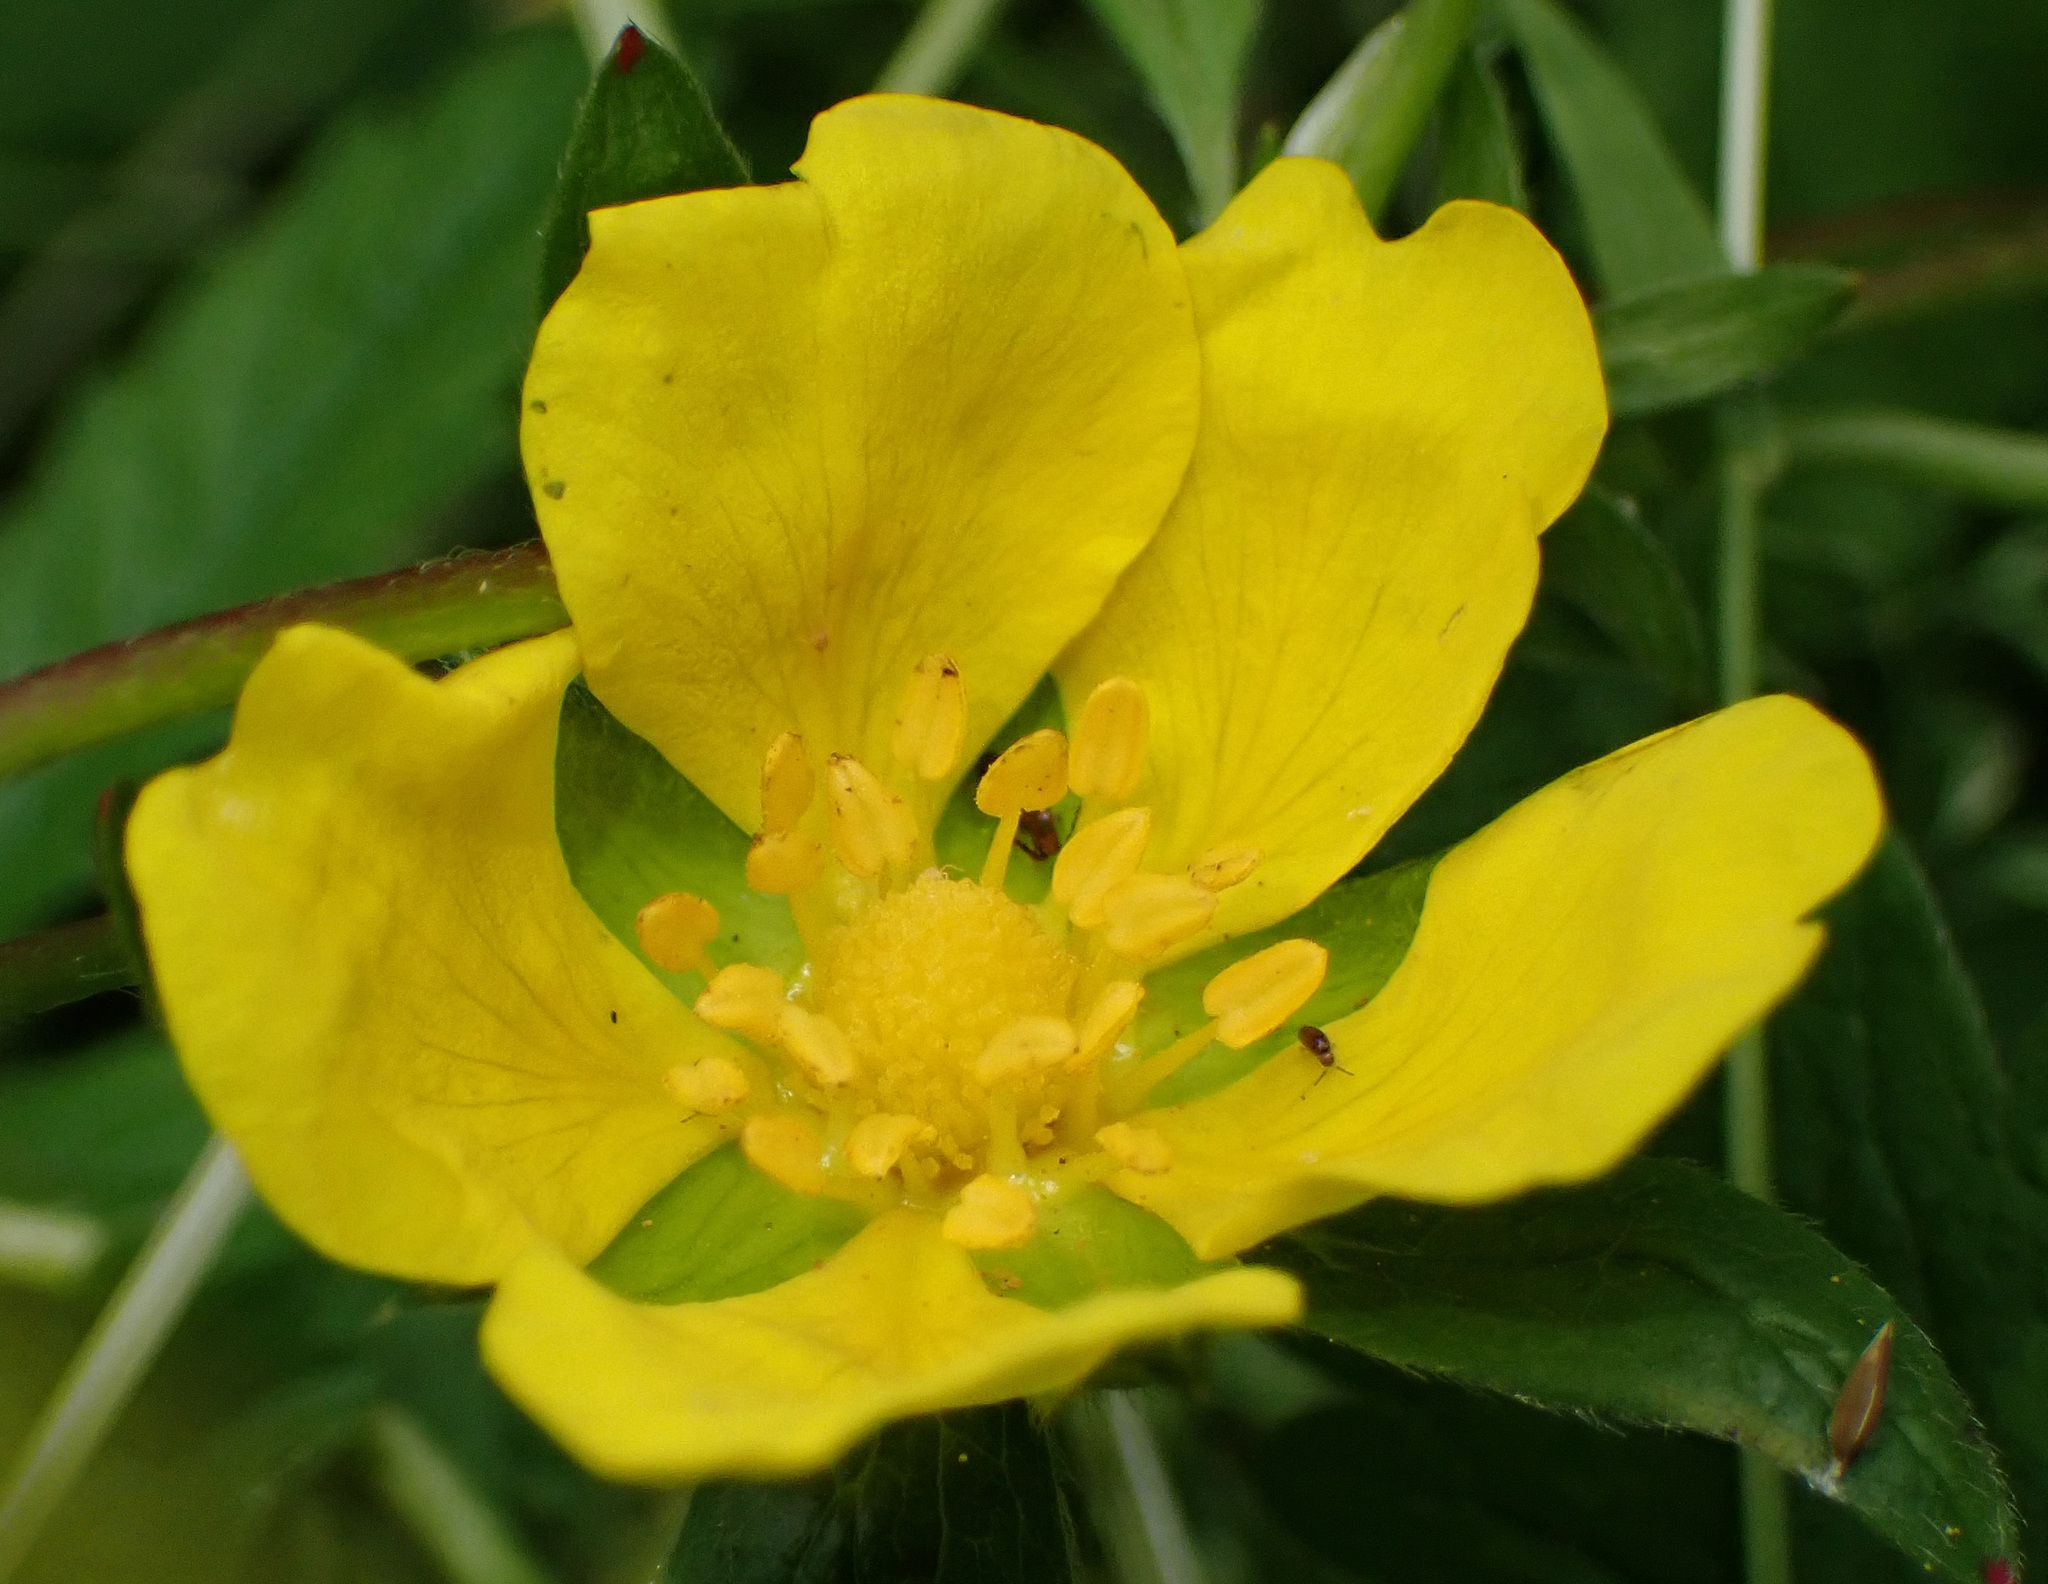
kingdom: Plantae
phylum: Tracheophyta
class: Magnoliopsida
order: Rosales
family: Rosaceae
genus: Potentilla
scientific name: Potentilla reptans
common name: Creeping cinquefoil
